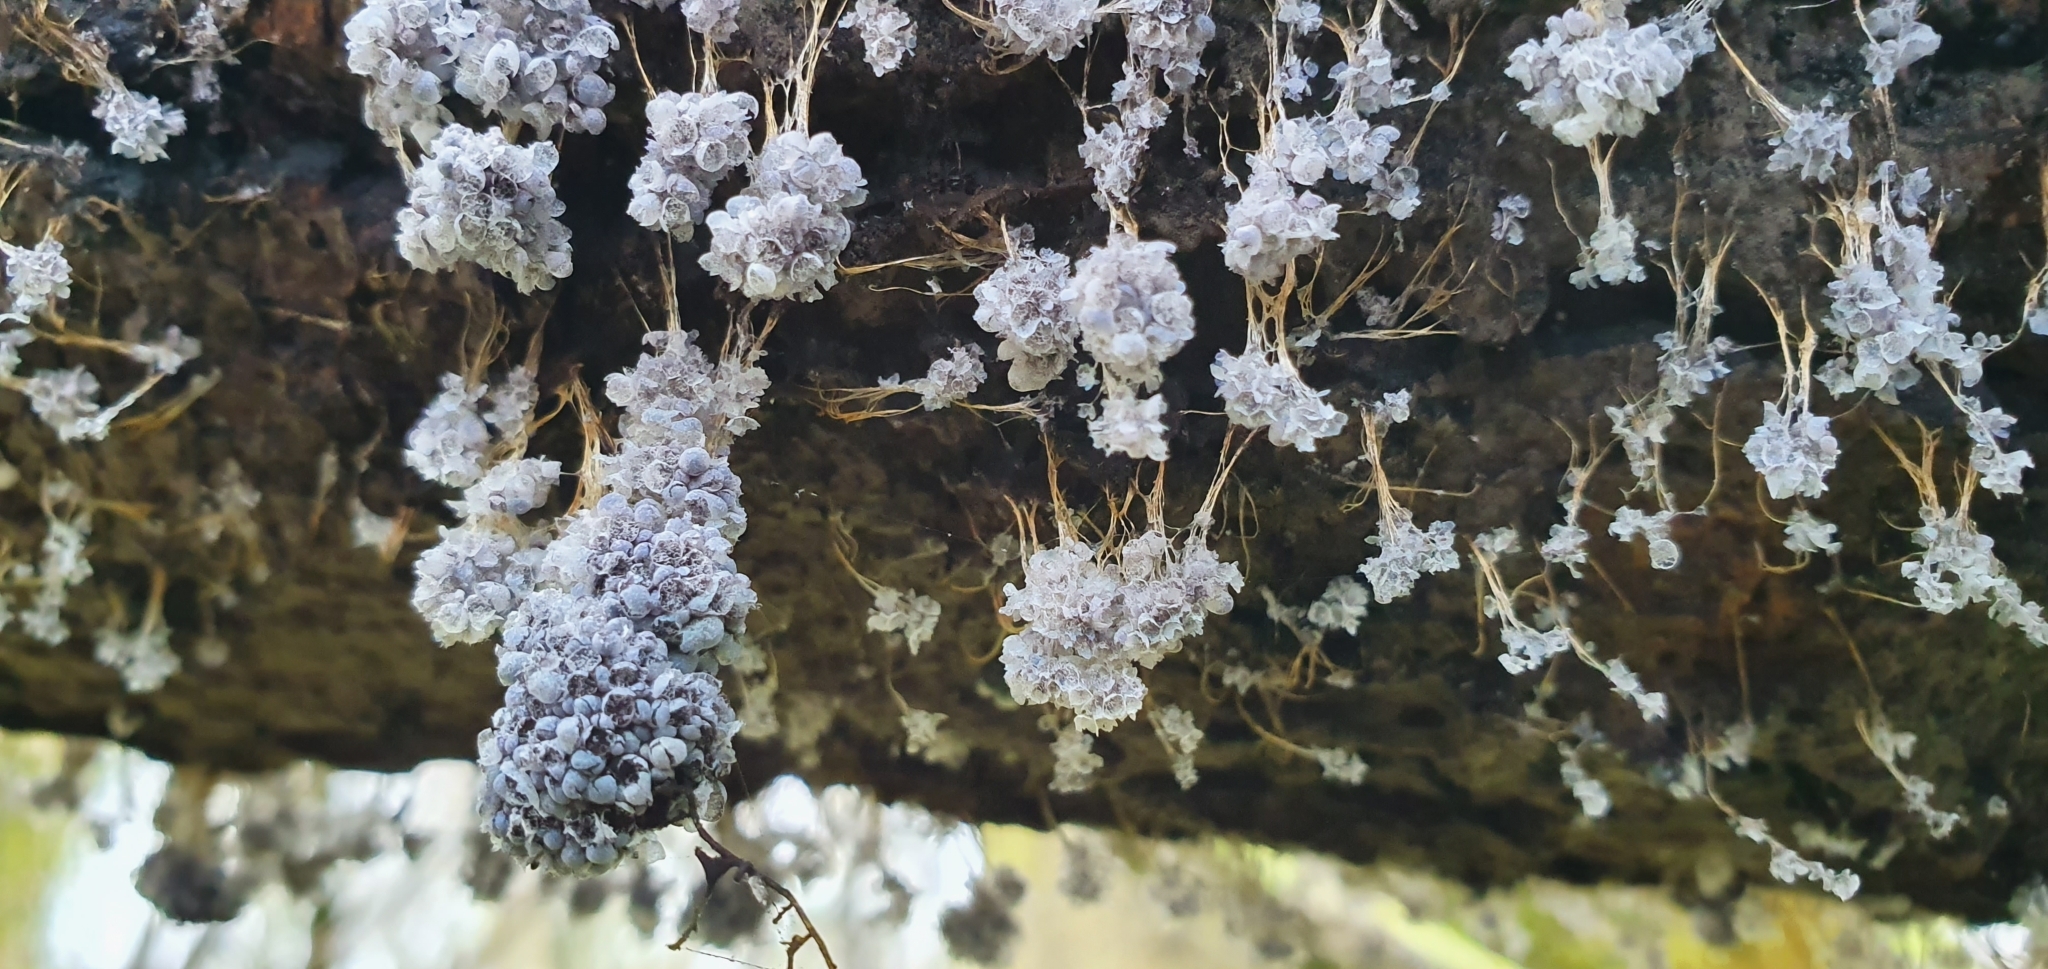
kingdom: Protozoa
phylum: Mycetozoa
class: Myxomycetes
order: Physarales
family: Physaraceae
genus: Badhamia
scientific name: Badhamia utricularis
